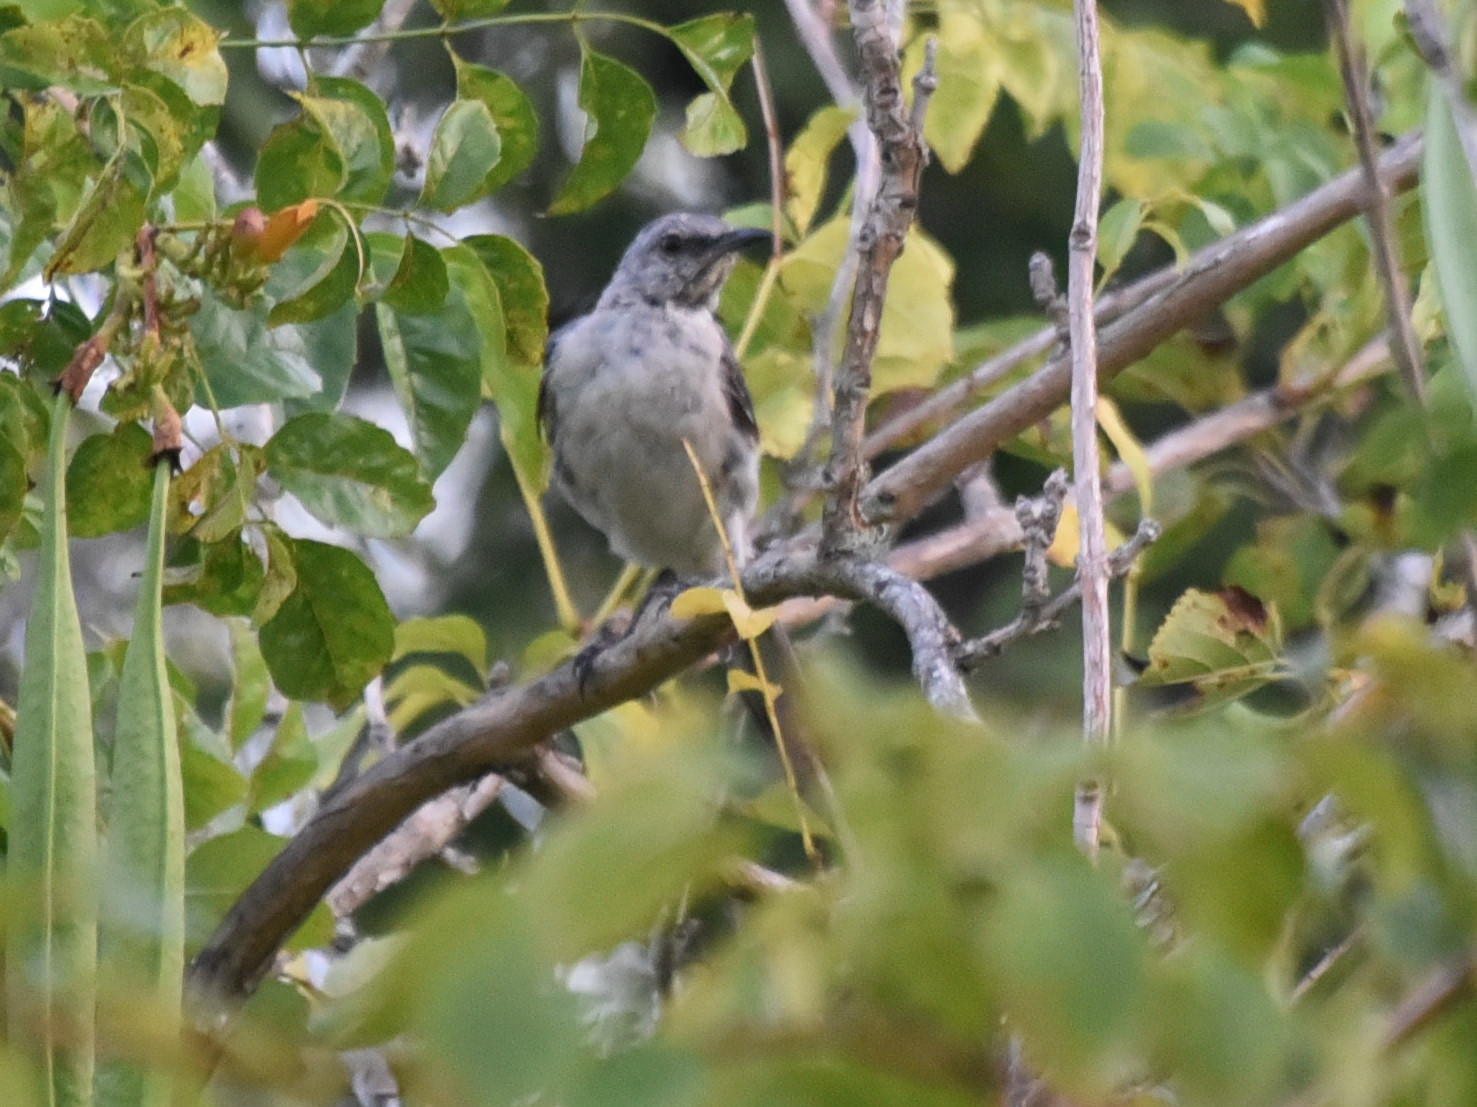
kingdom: Animalia
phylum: Chordata
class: Aves
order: Passeriformes
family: Mimidae
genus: Mimus
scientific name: Mimus polyglottos
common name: Northern mockingbird
